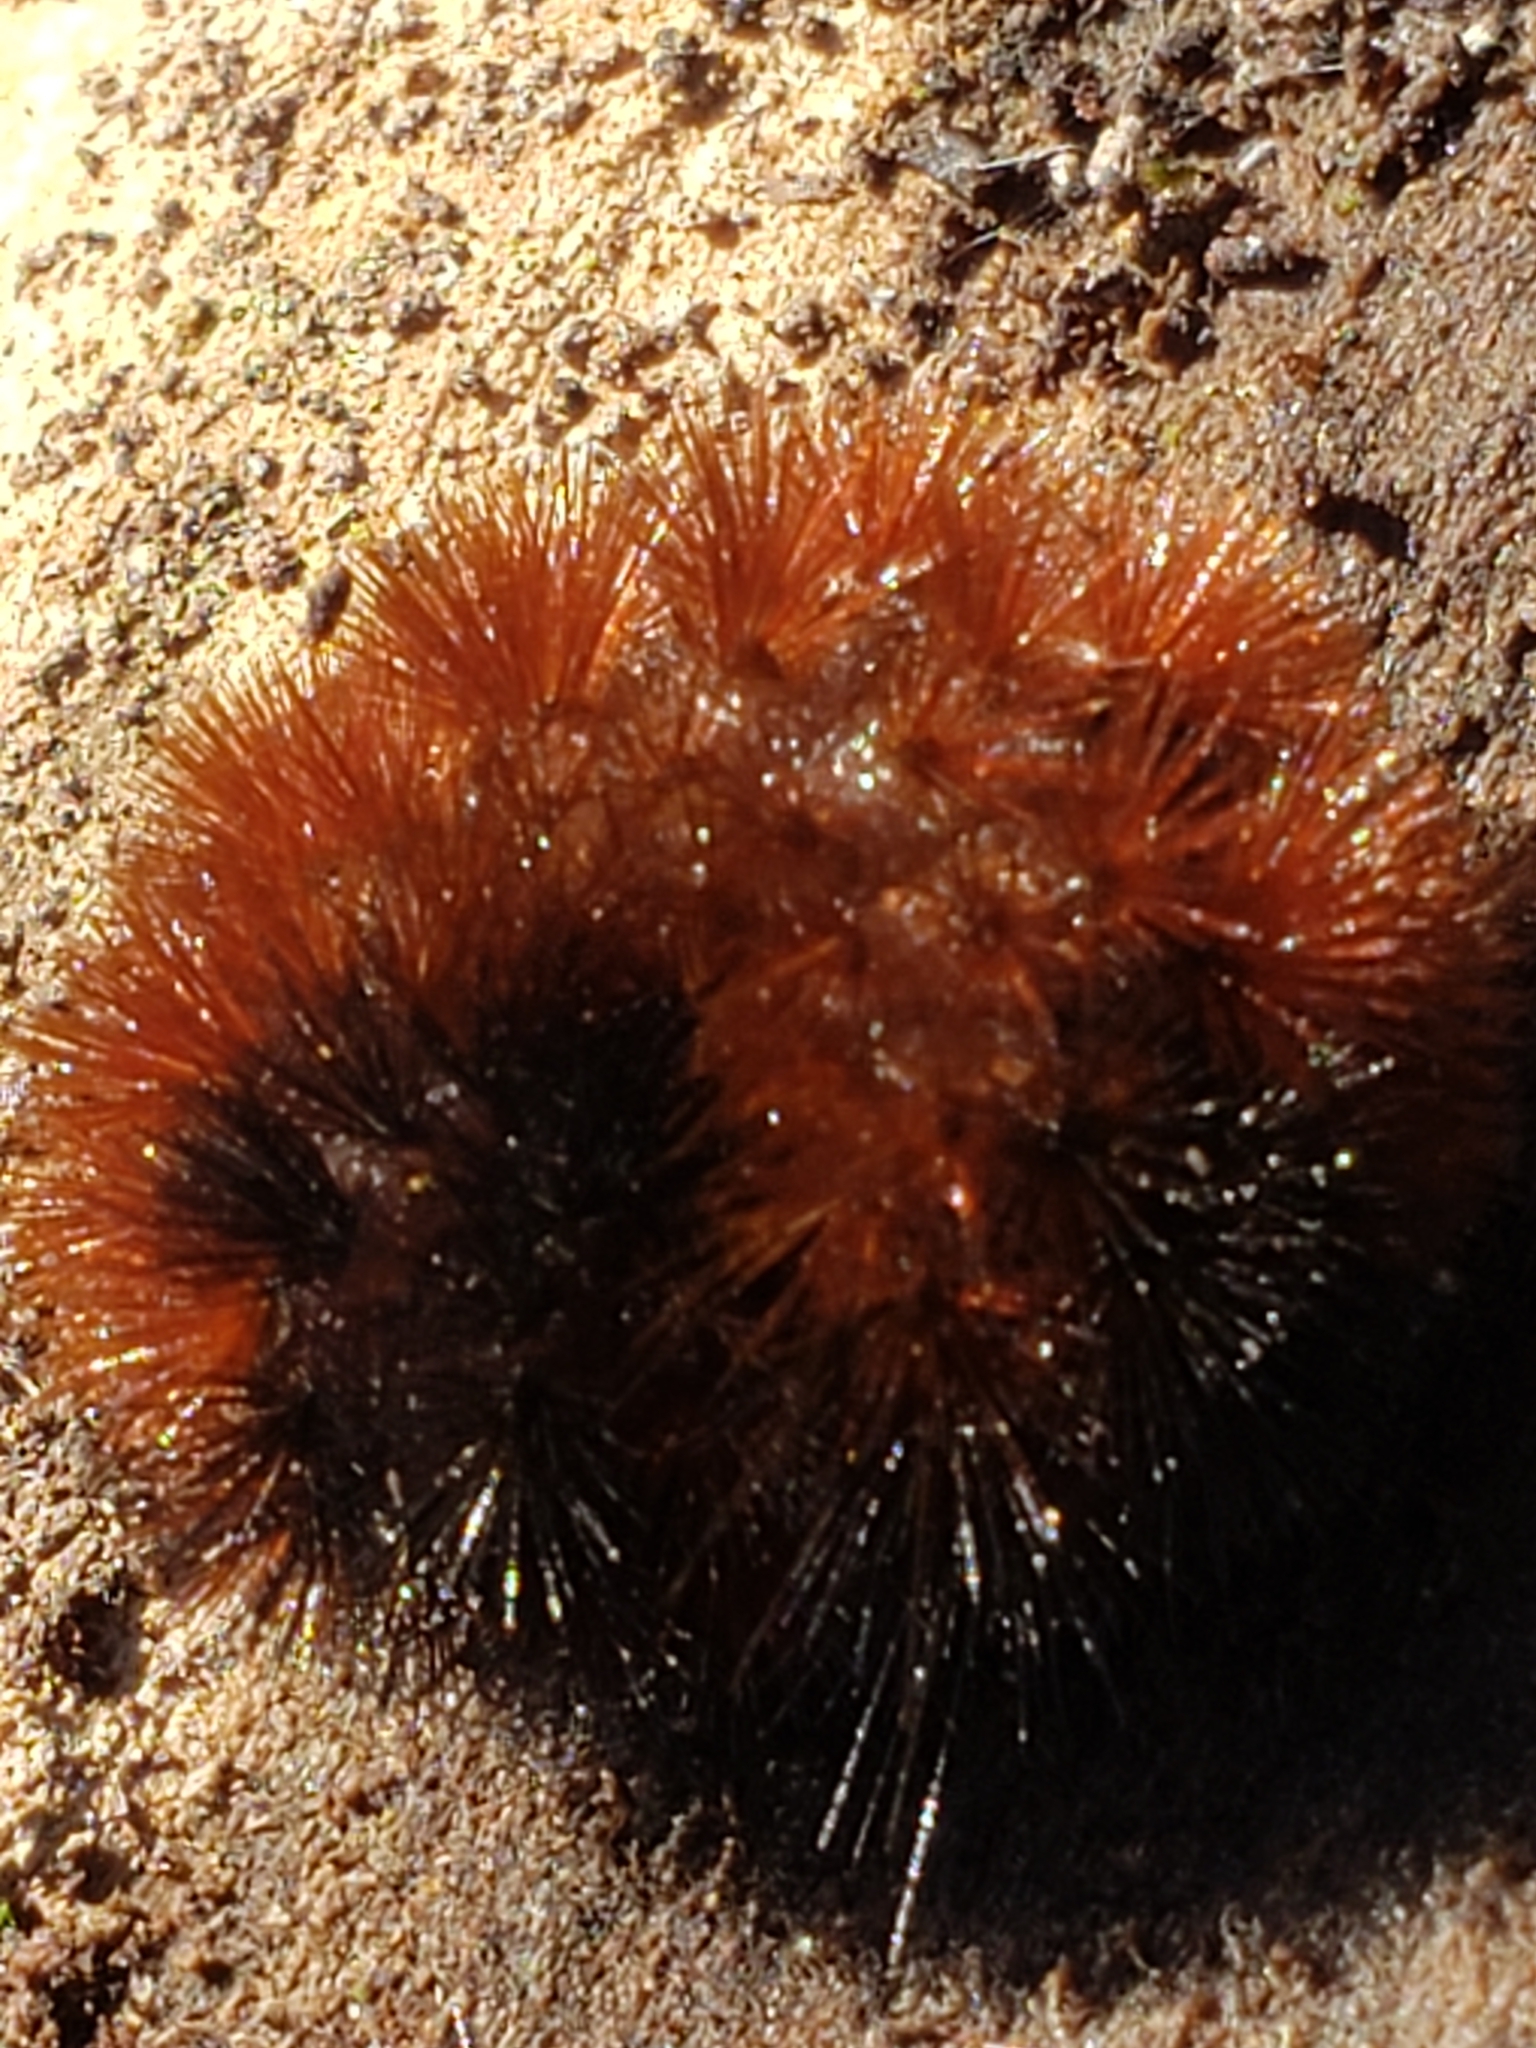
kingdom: Animalia
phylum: Arthropoda
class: Insecta
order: Lepidoptera
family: Erebidae
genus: Pyrrharctia
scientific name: Pyrrharctia isabella
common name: Isabella tiger moth
